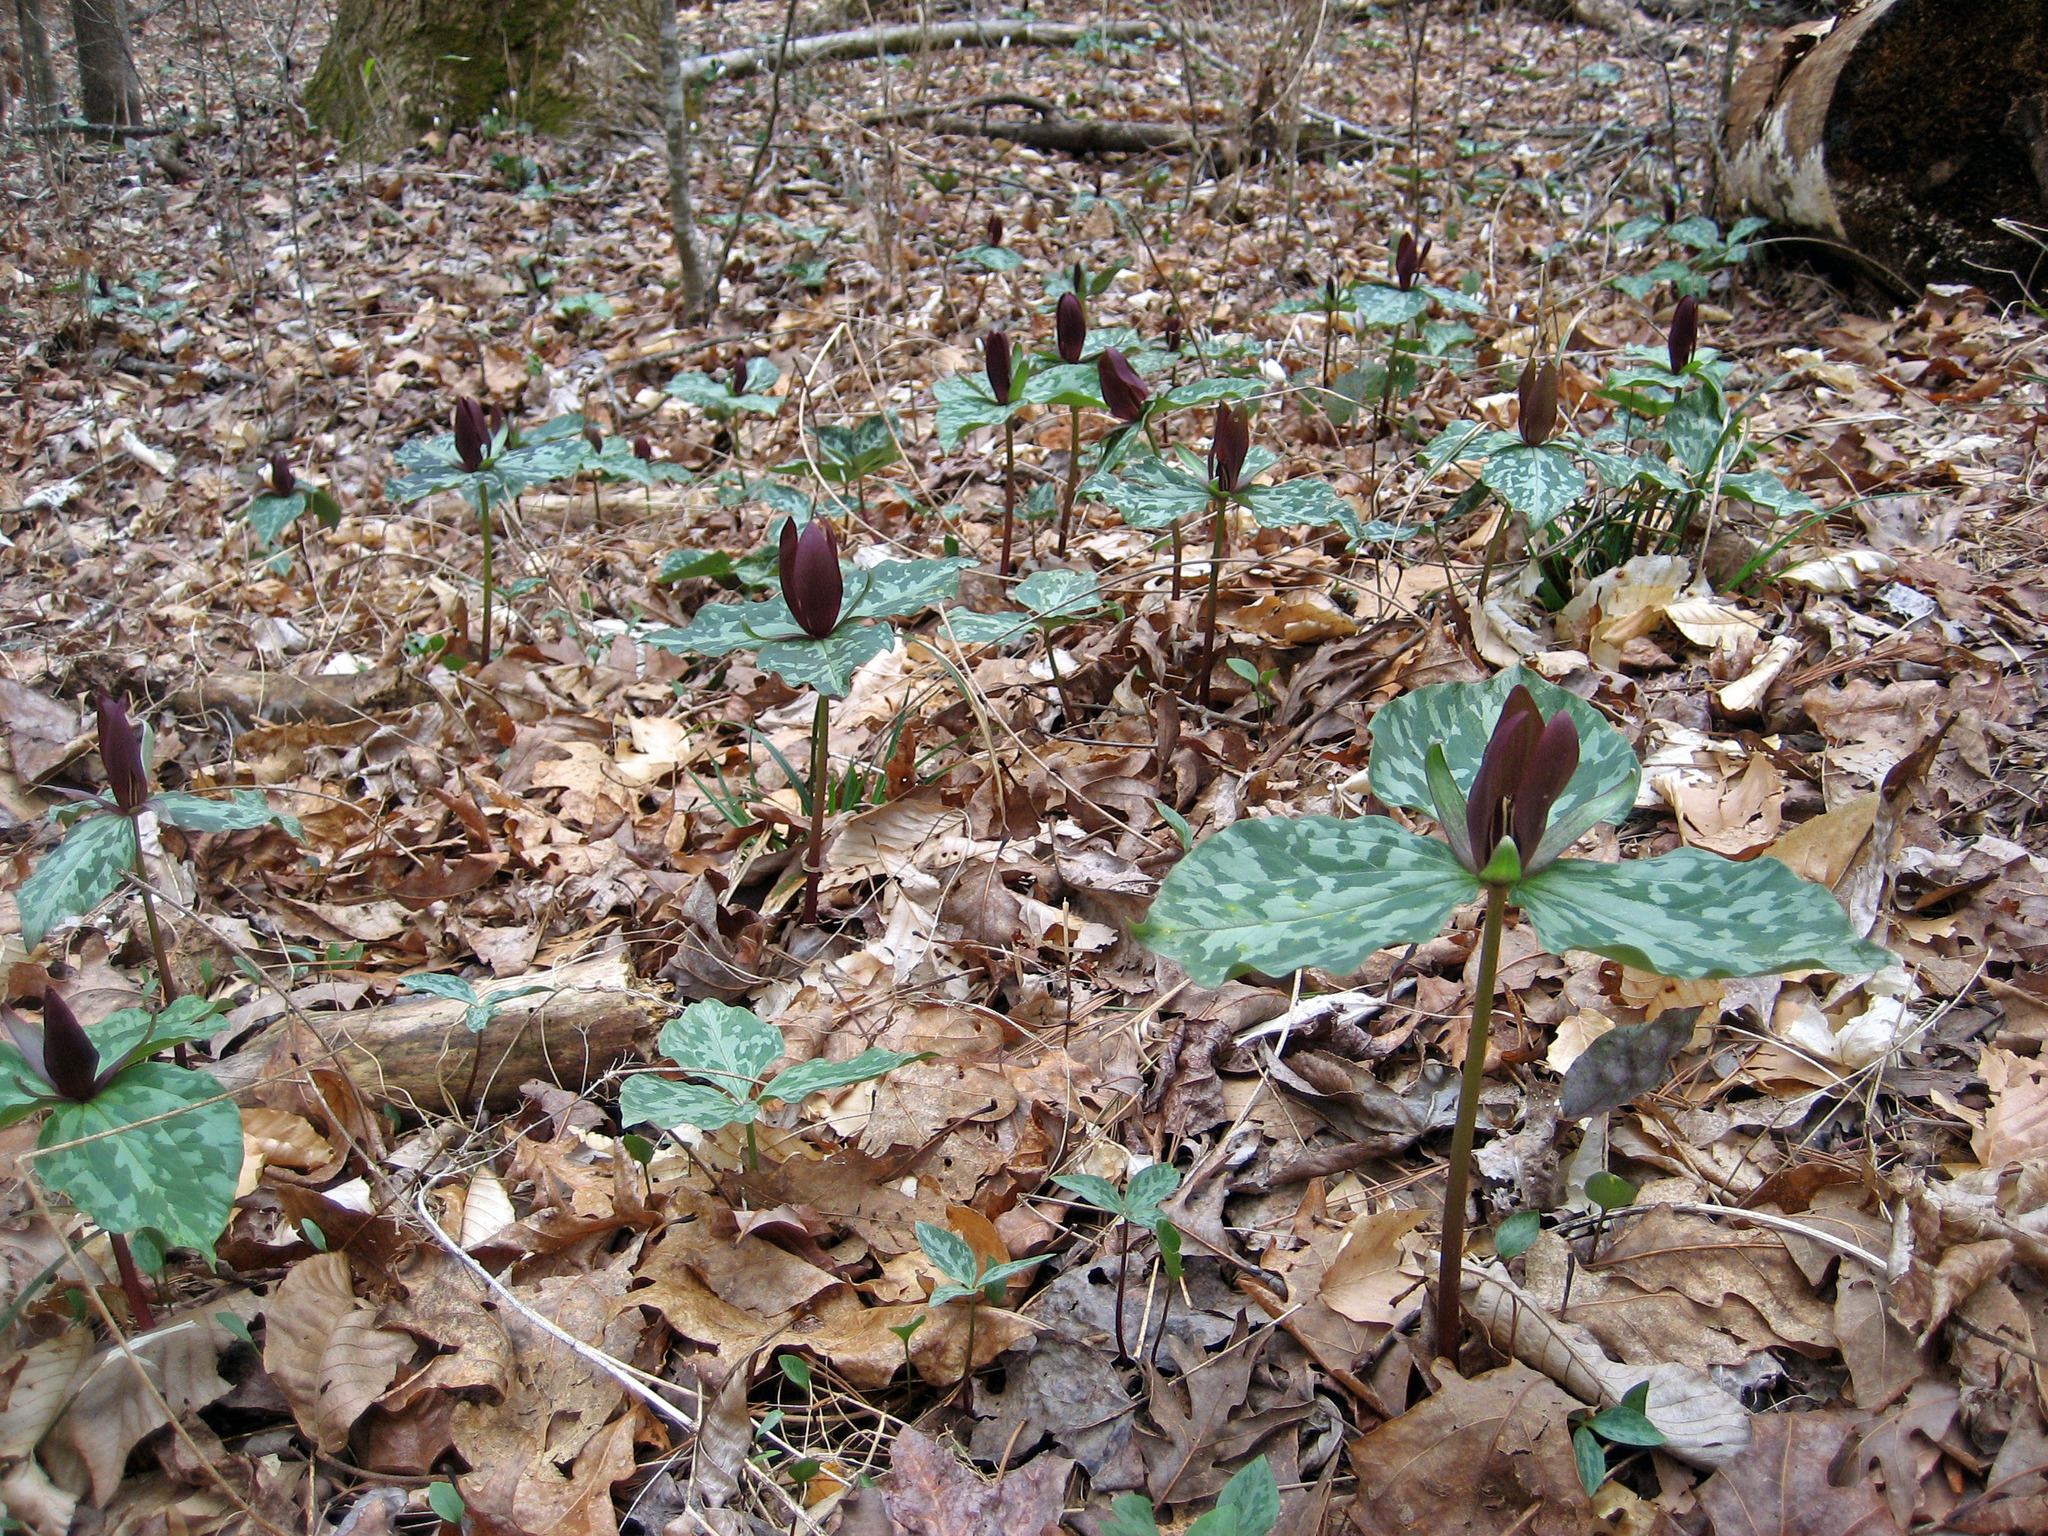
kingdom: Plantae
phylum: Tracheophyta
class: Liliopsida
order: Liliales
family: Melanthiaceae
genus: Trillium
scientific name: Trillium cuneatum
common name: Cuneate trillium
